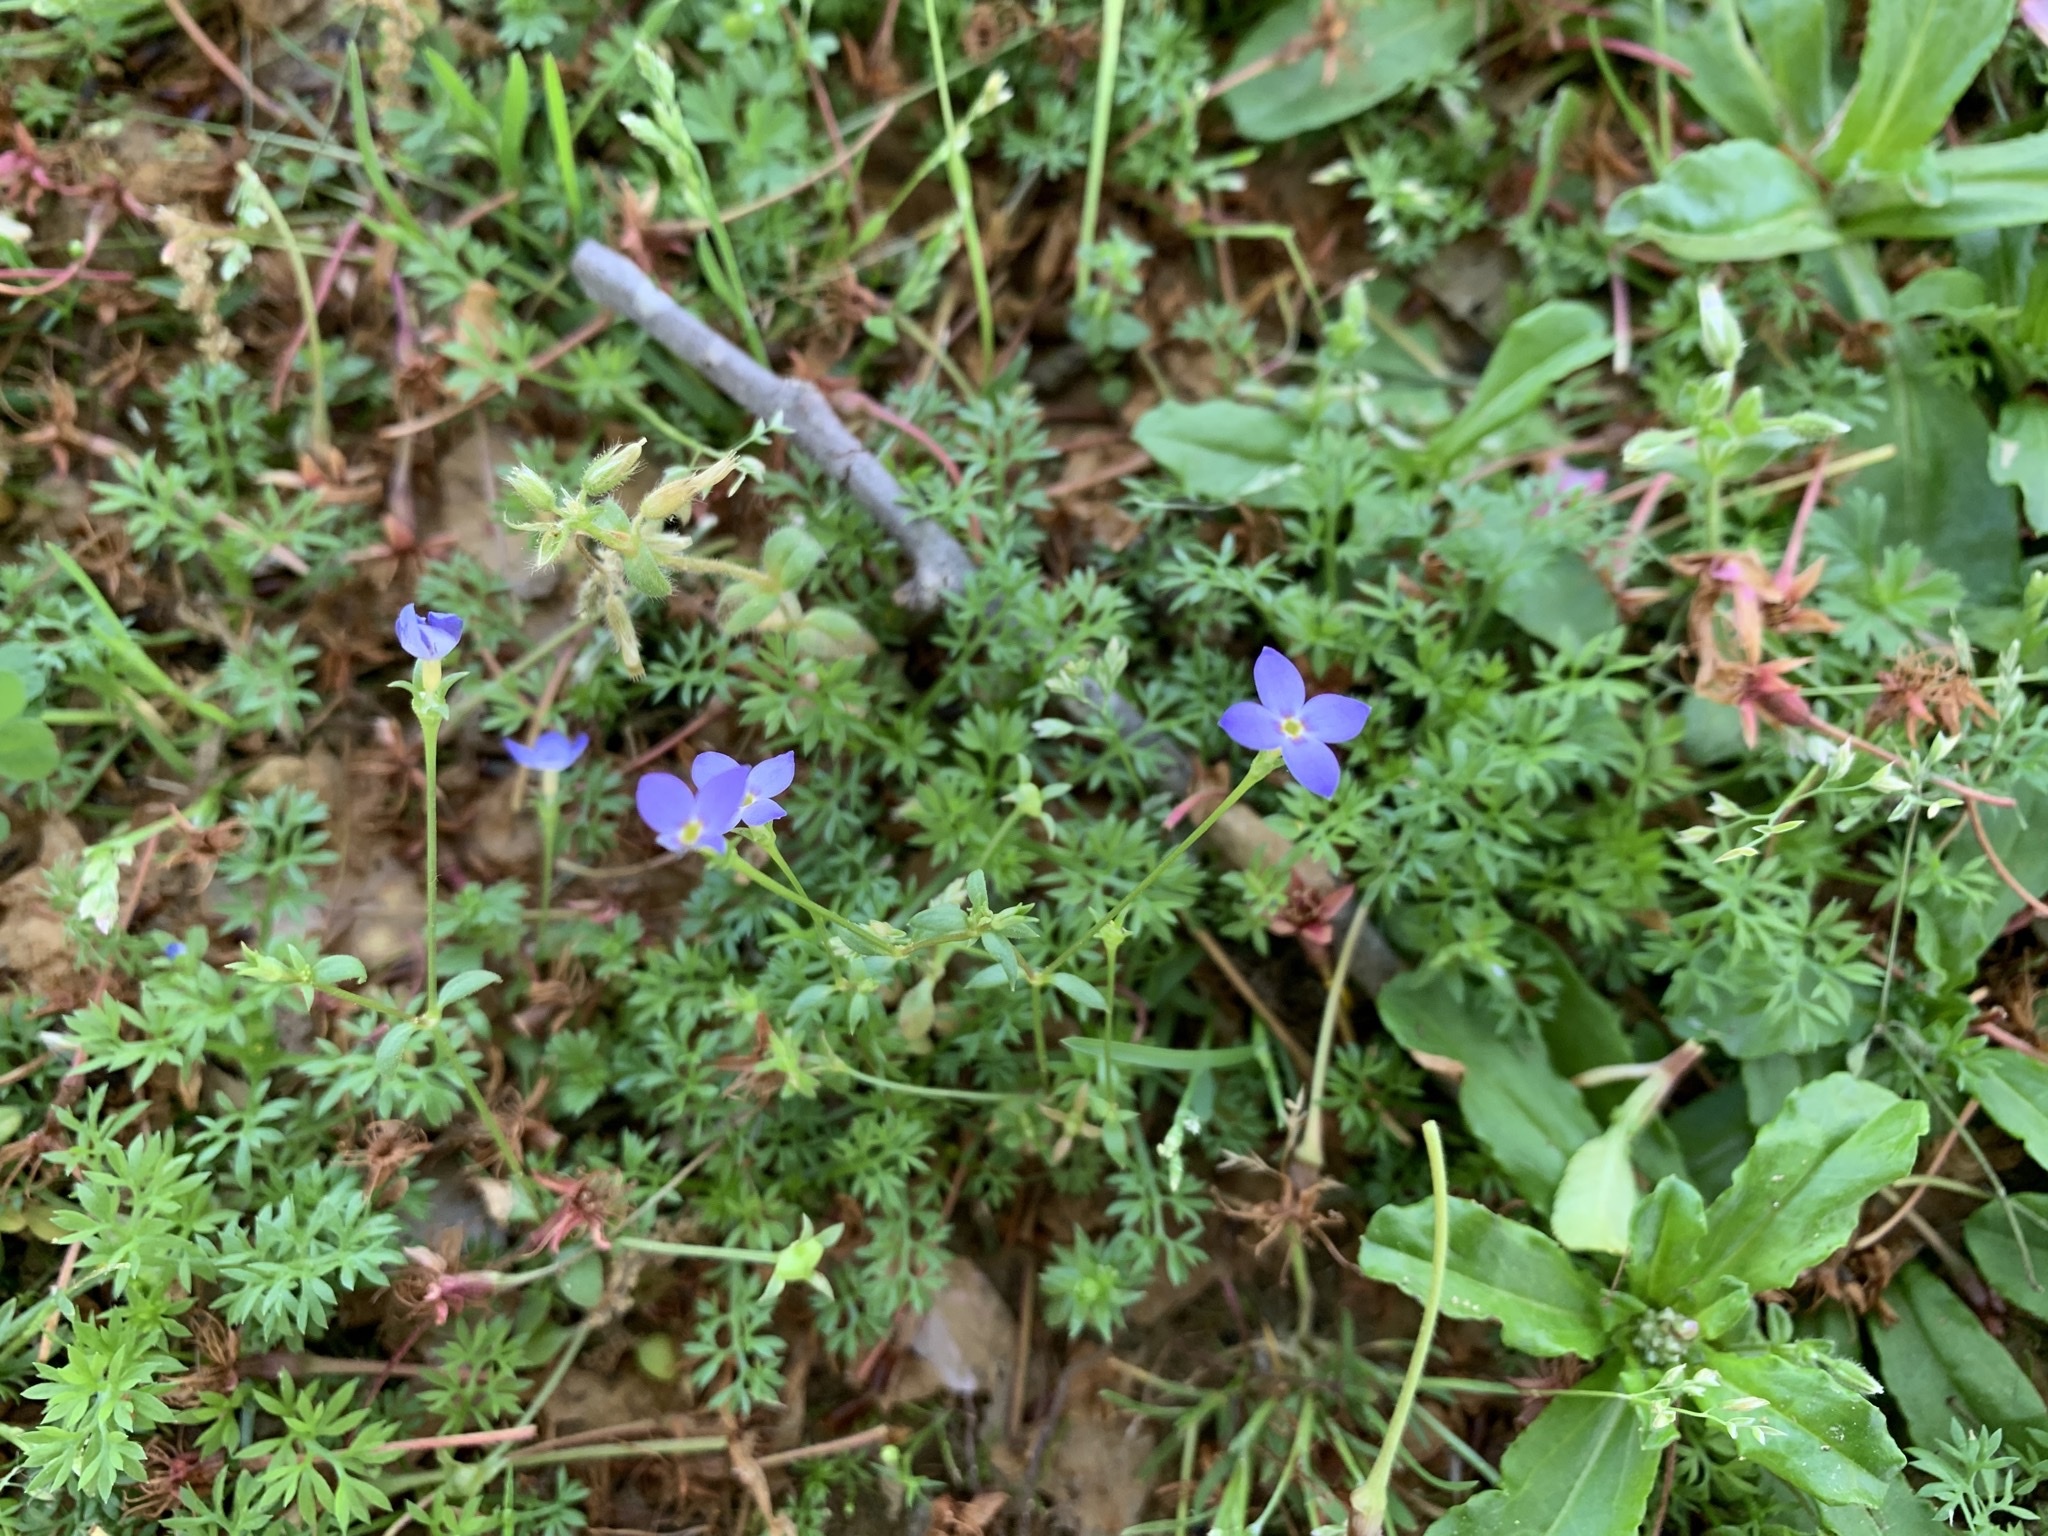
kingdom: Plantae
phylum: Tracheophyta
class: Magnoliopsida
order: Gentianales
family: Rubiaceae
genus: Houstonia
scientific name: Houstonia pusilla
